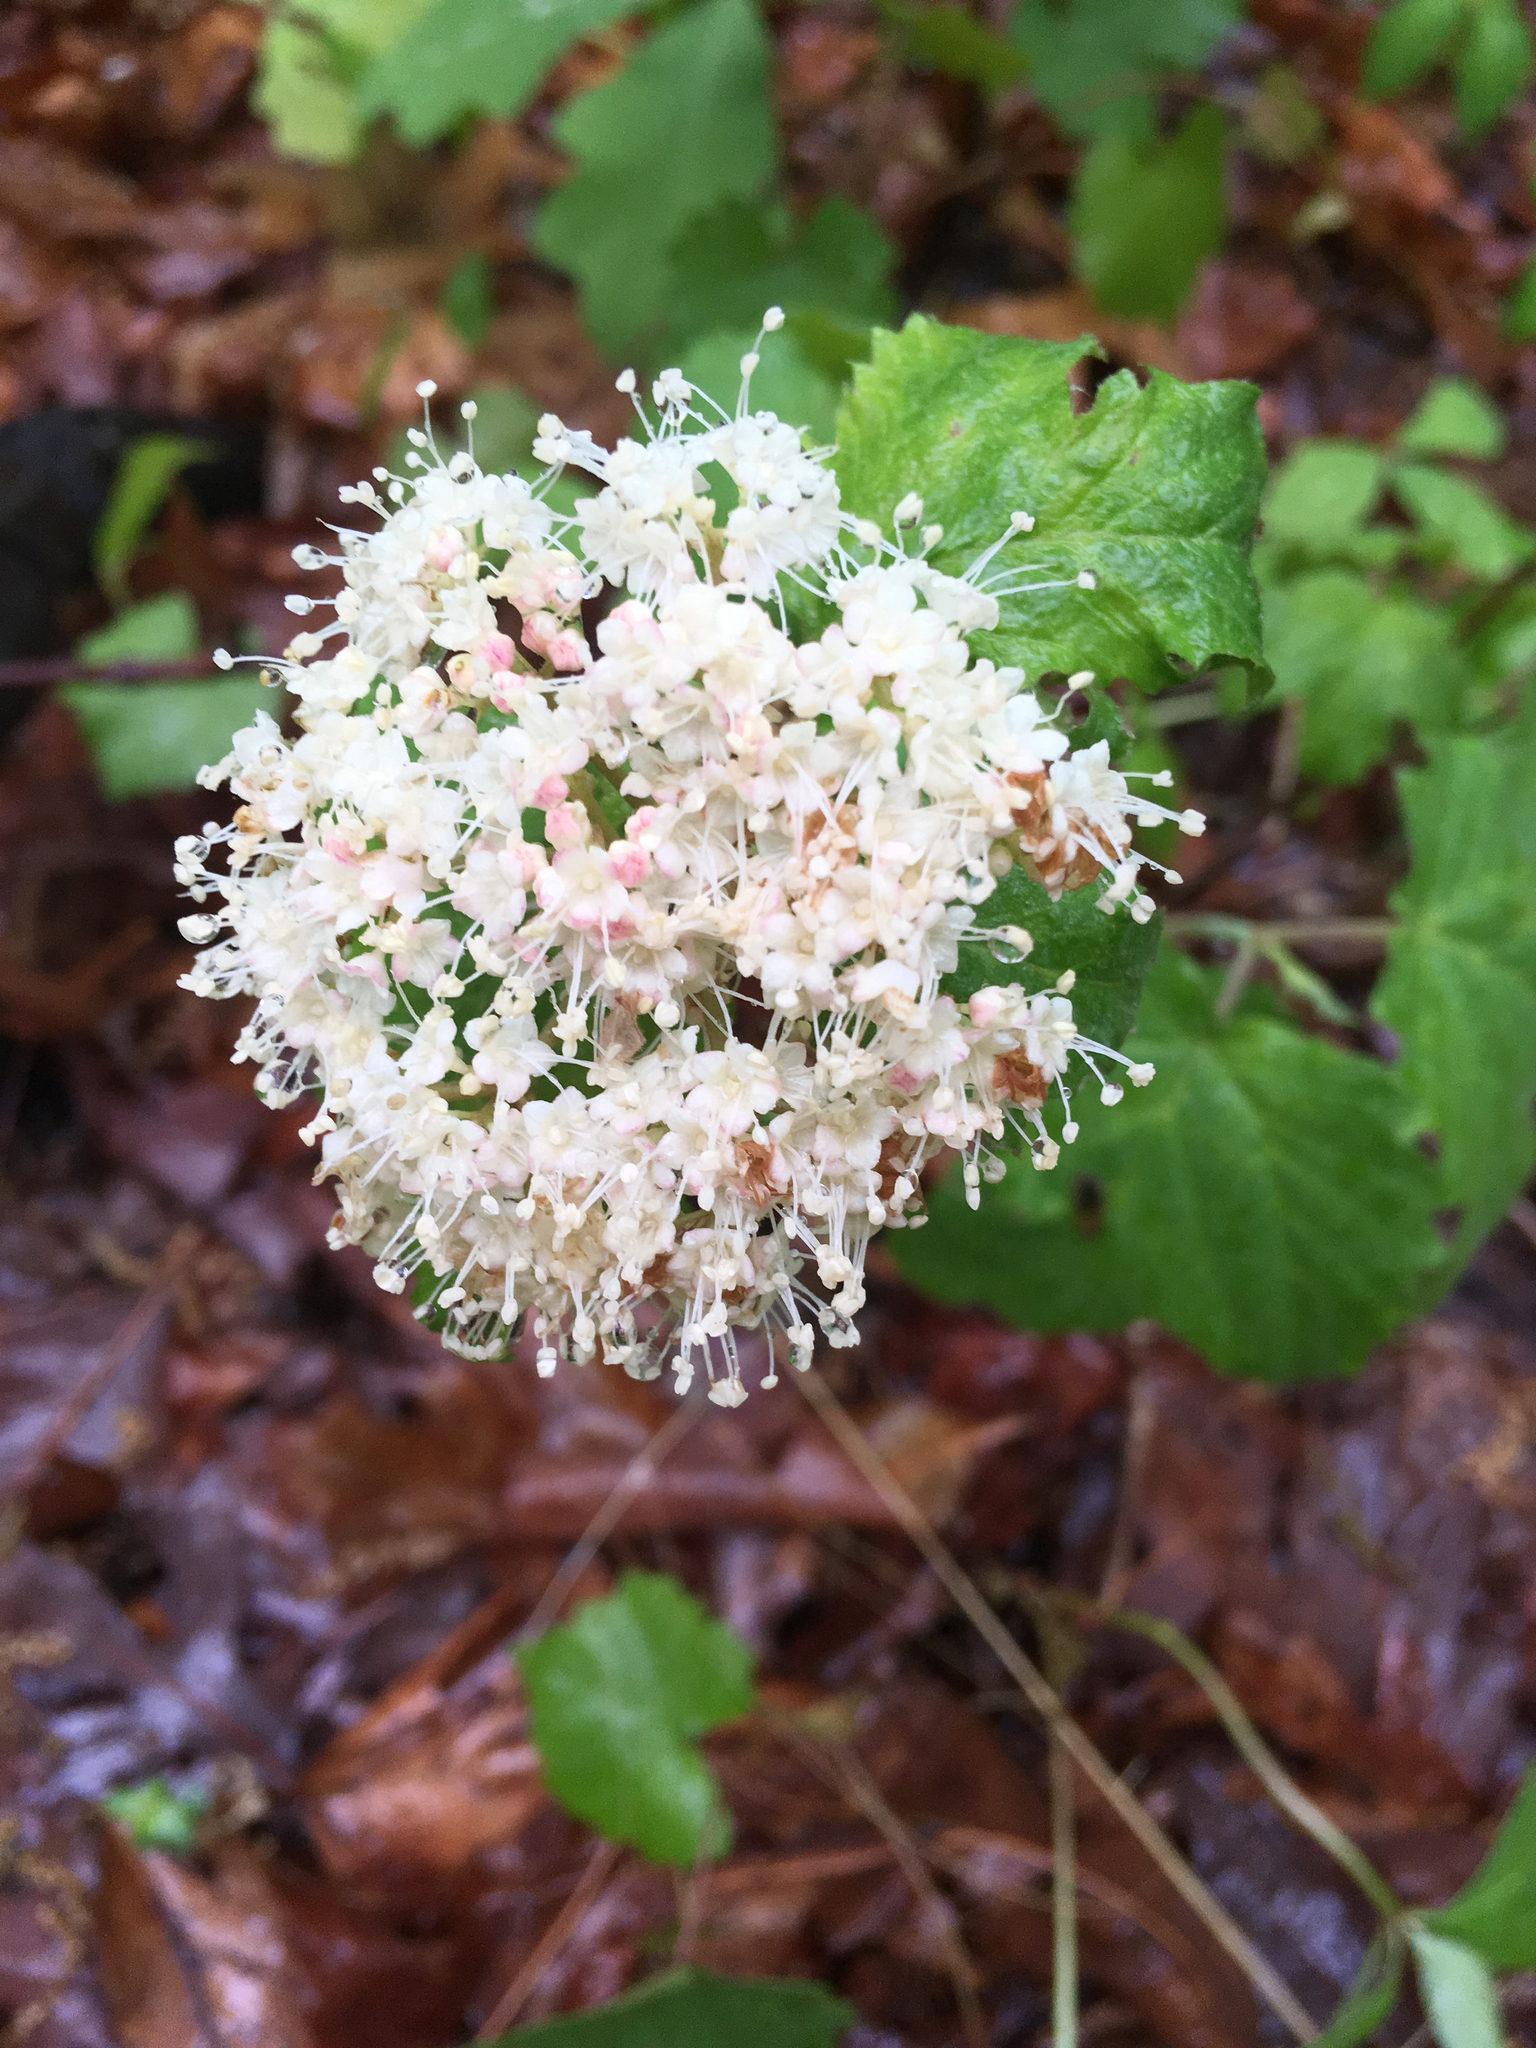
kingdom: Plantae
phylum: Tracheophyta
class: Magnoliopsida
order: Dipsacales
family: Viburnaceae
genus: Viburnum
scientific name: Viburnum acerifolium
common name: Dockmackie
